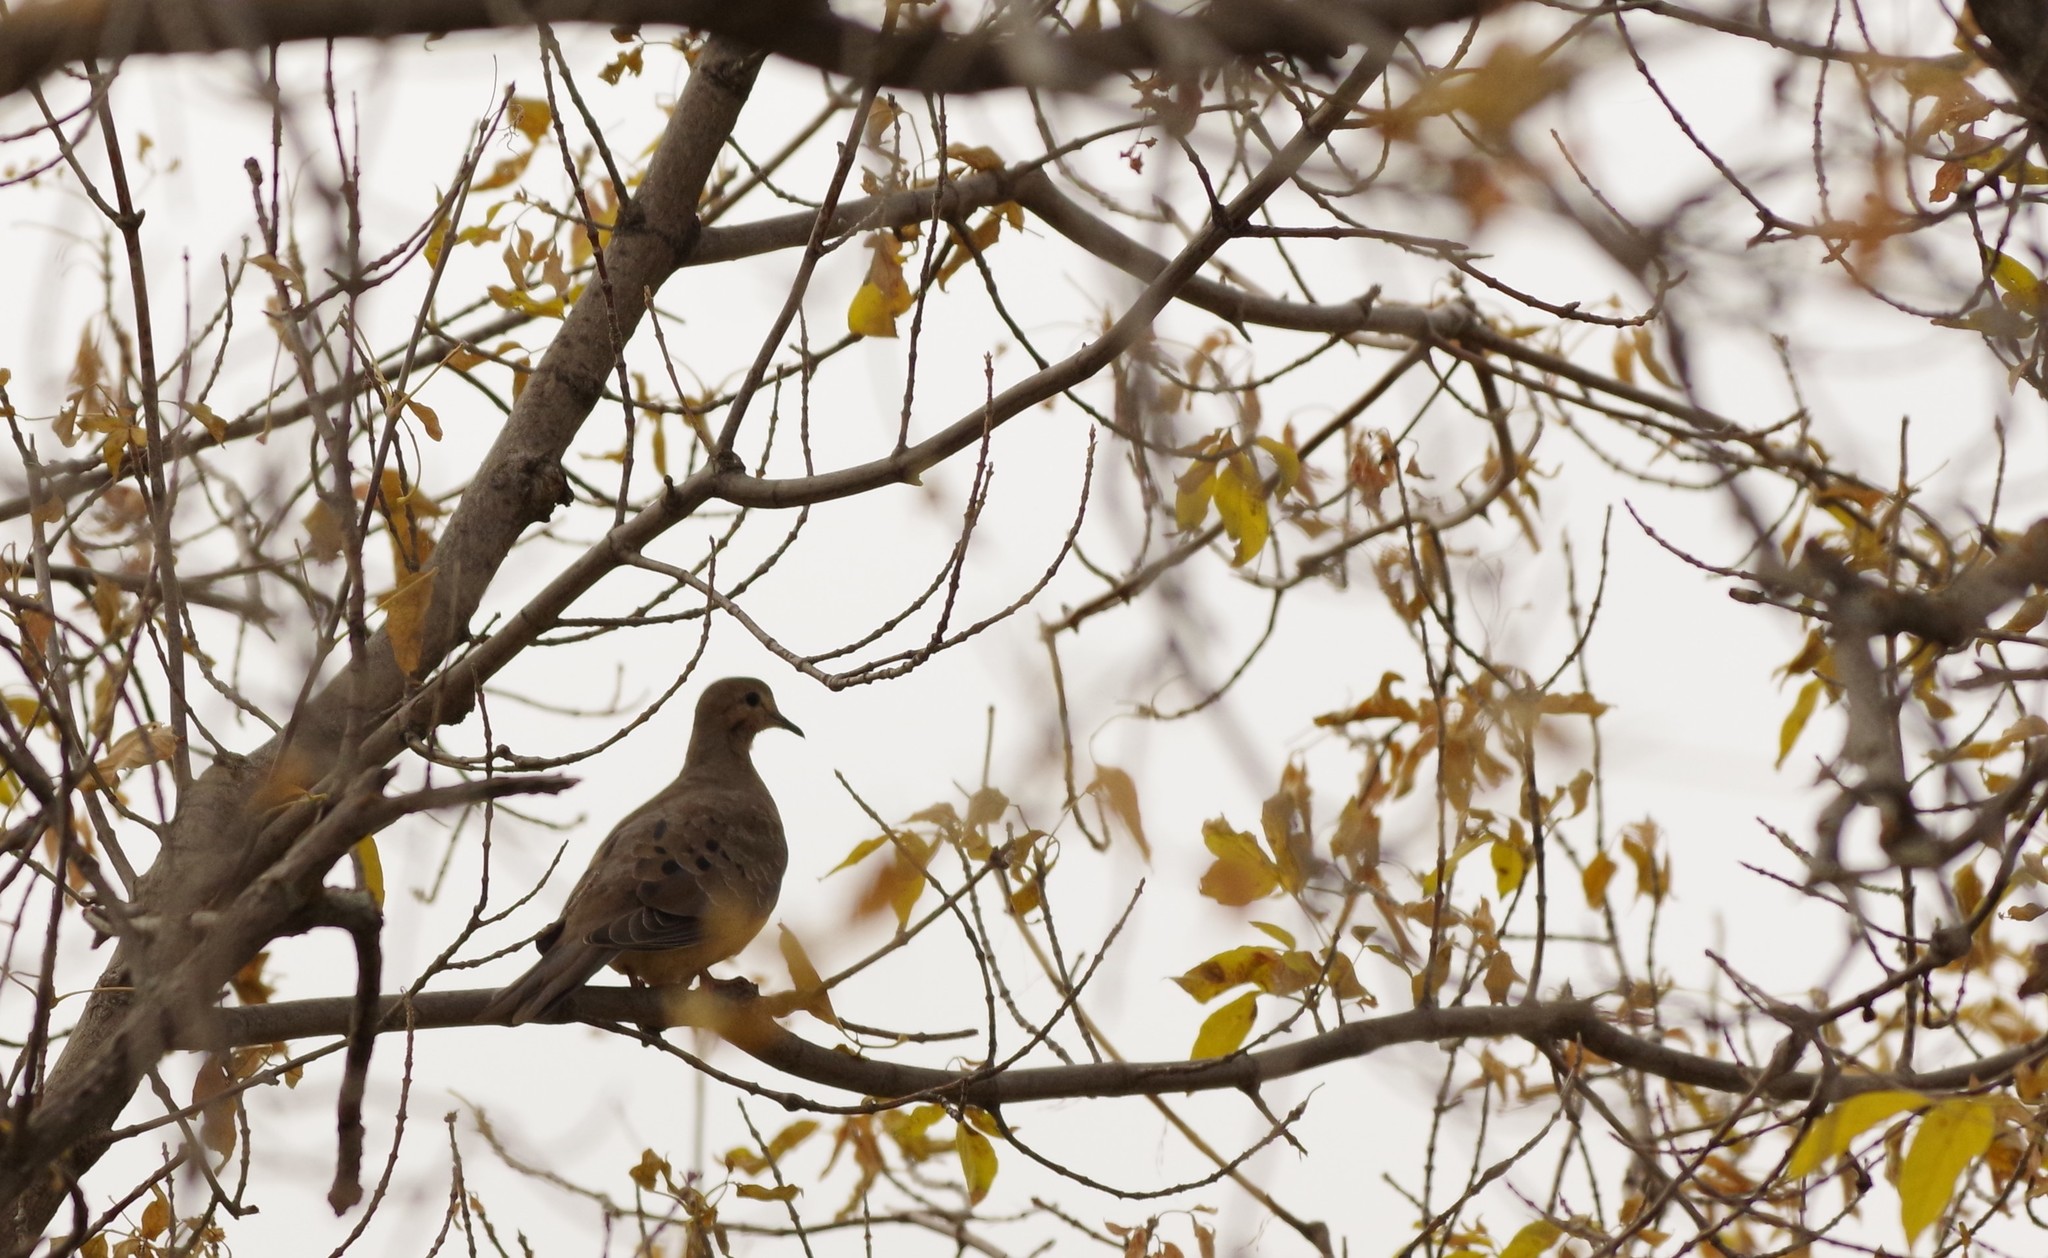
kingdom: Animalia
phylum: Chordata
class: Aves
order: Columbiformes
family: Columbidae
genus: Zenaida
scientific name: Zenaida macroura
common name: Mourning dove
